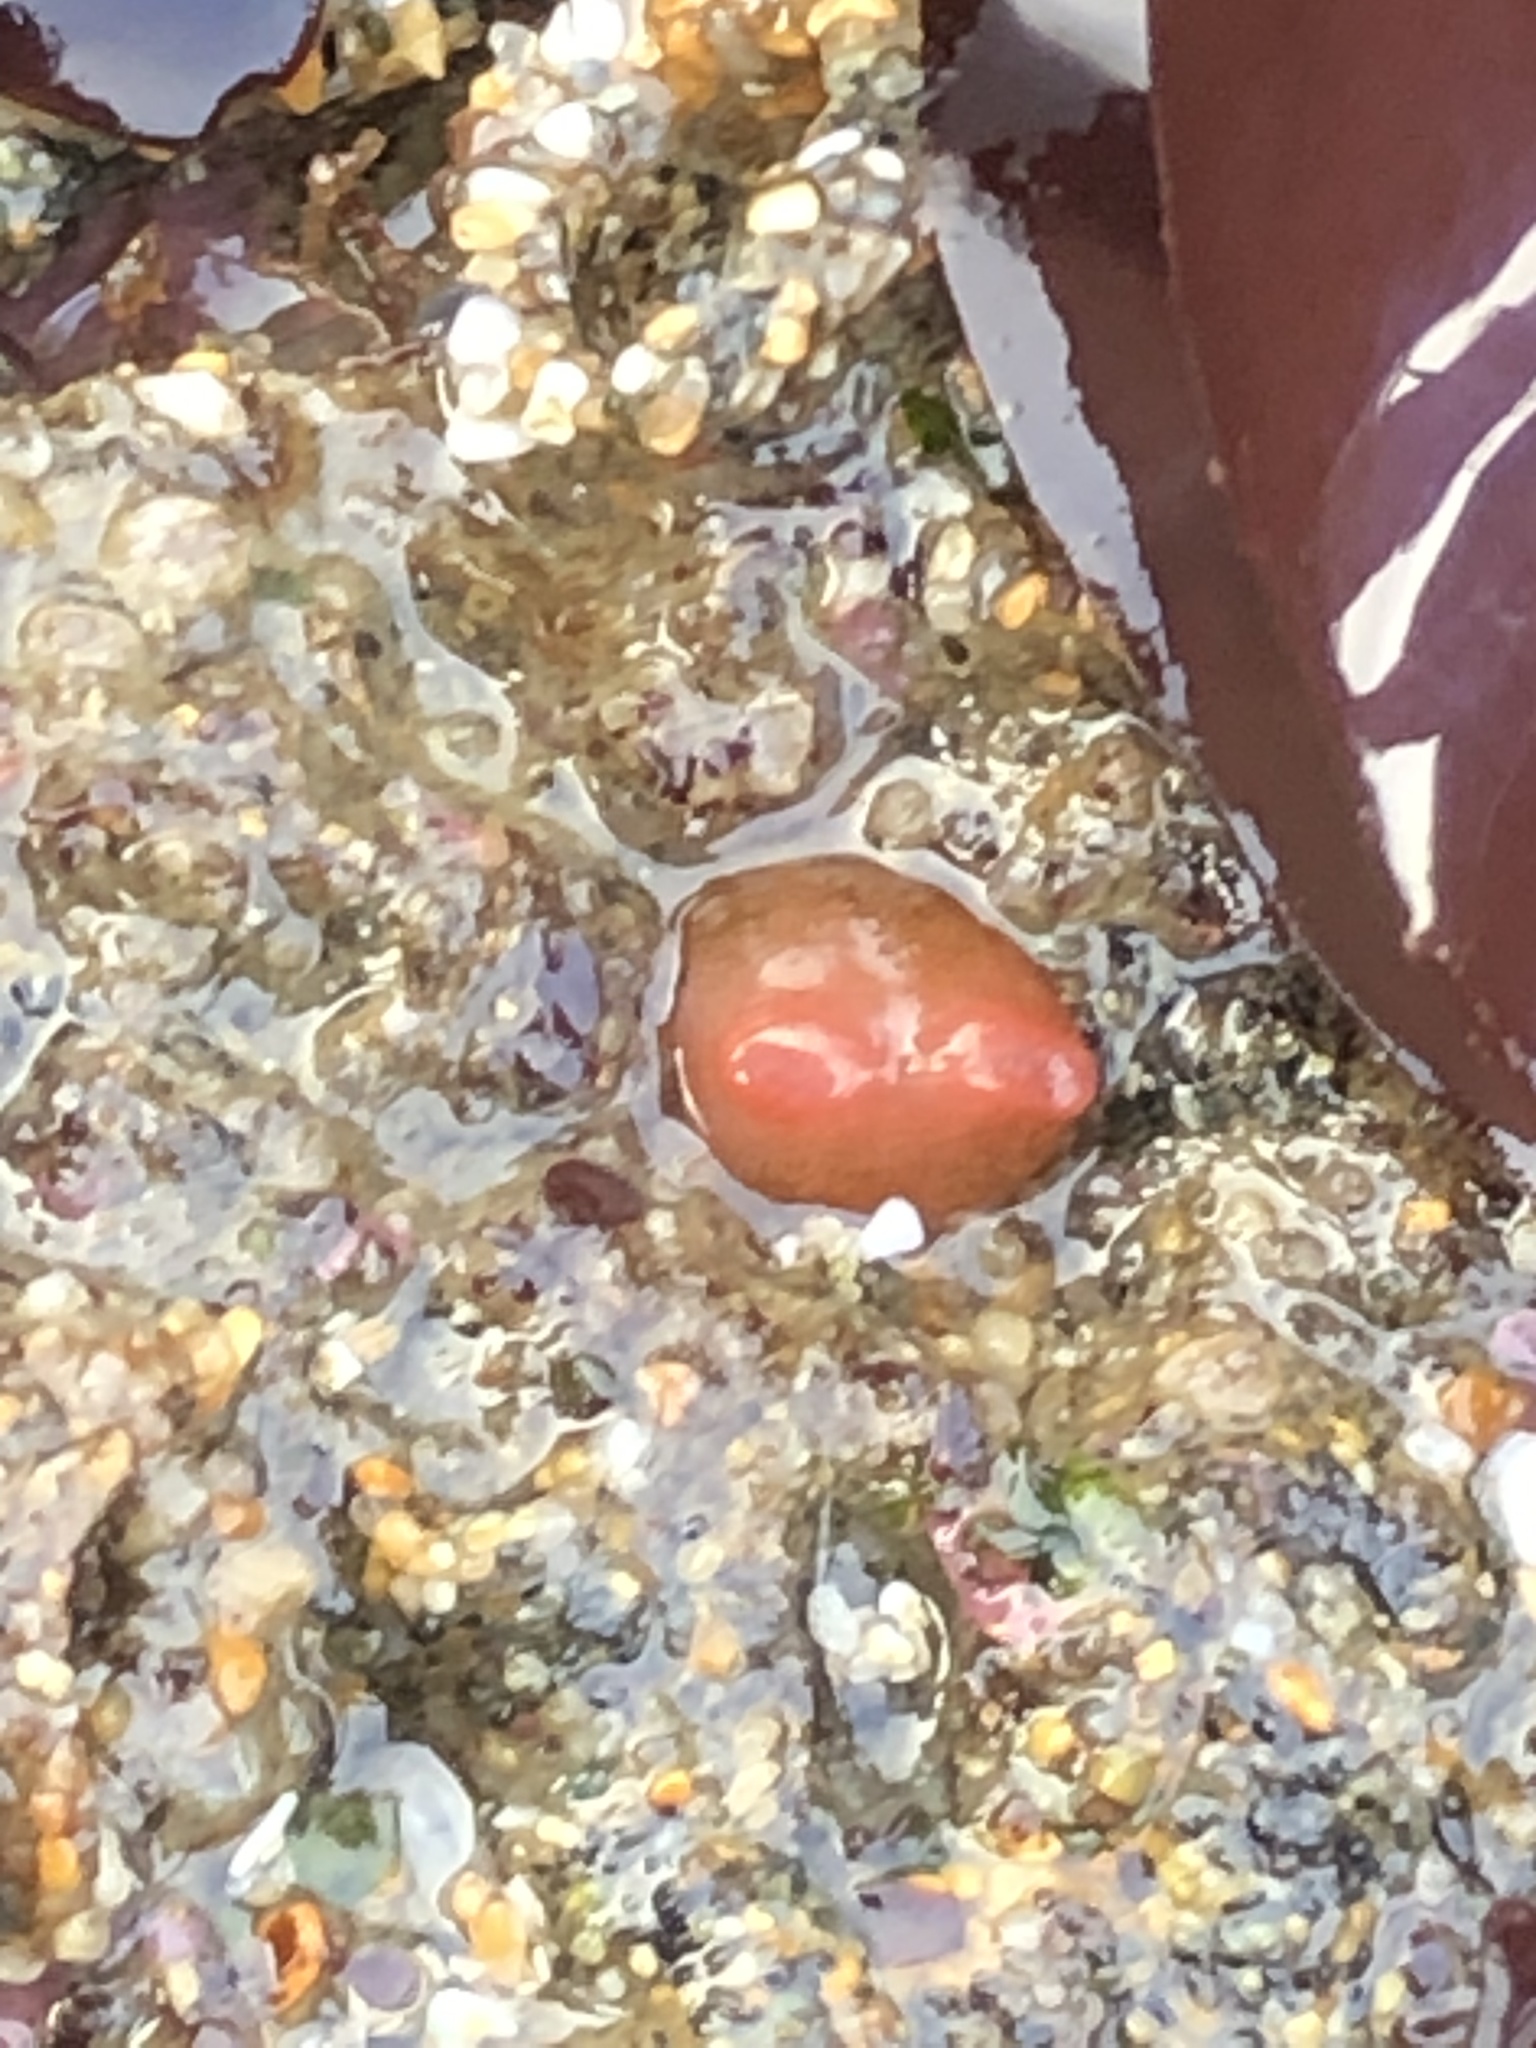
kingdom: Animalia
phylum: Mollusca
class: Bivalvia
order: Adapedonta
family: Hiatellidae
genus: Hiatella
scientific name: Hiatella arctica
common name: Arctic hiatella
